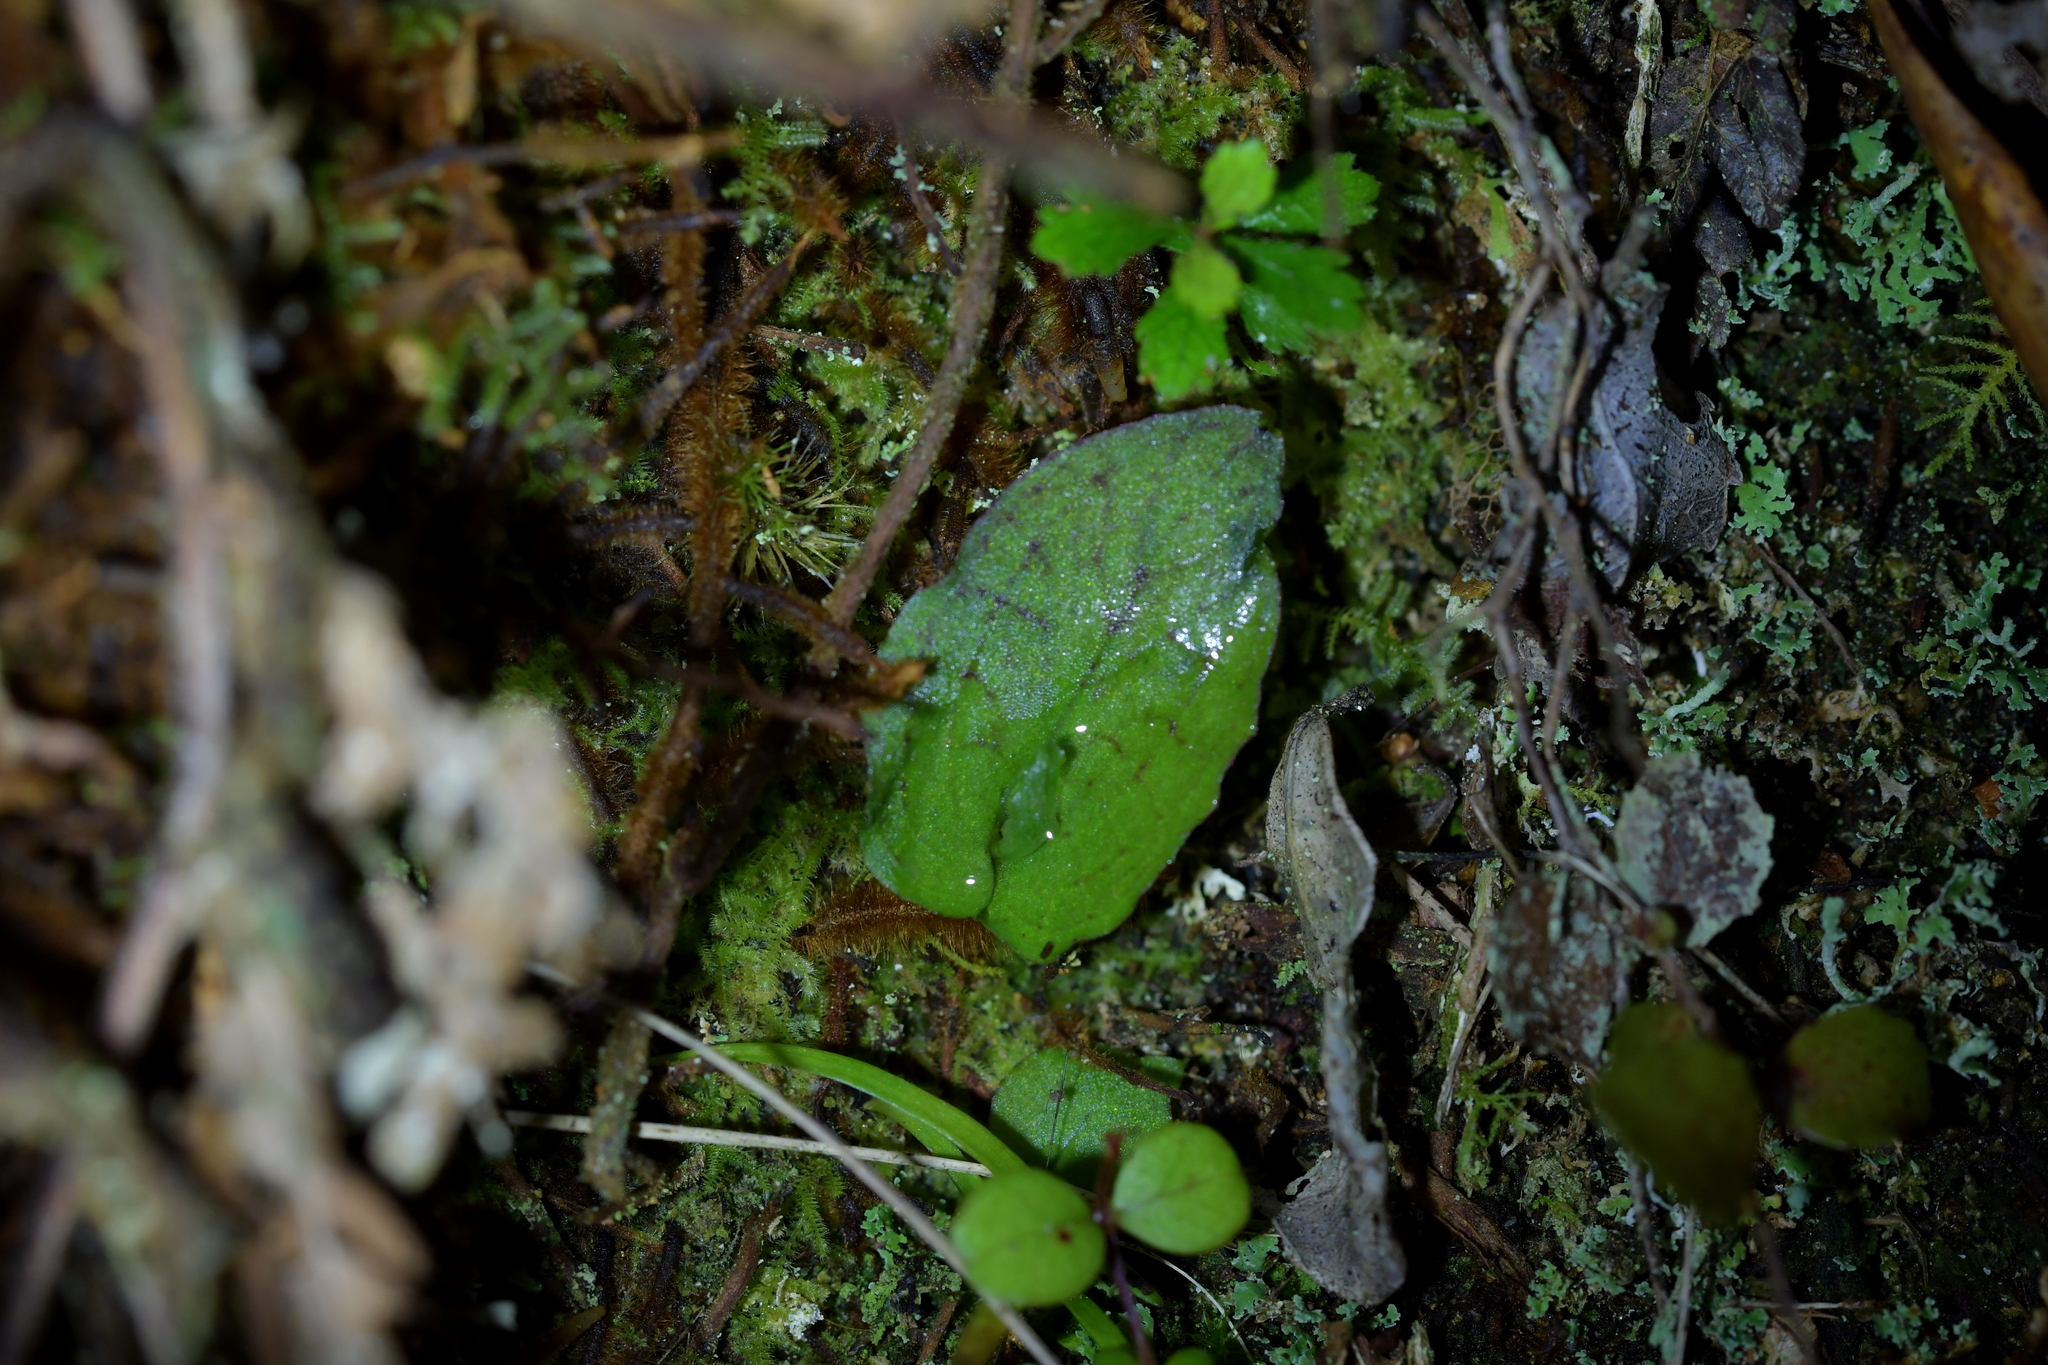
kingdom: Plantae
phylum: Tracheophyta
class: Liliopsida
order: Asparagales
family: Orchidaceae
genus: Corybas
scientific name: Corybas oblongus
